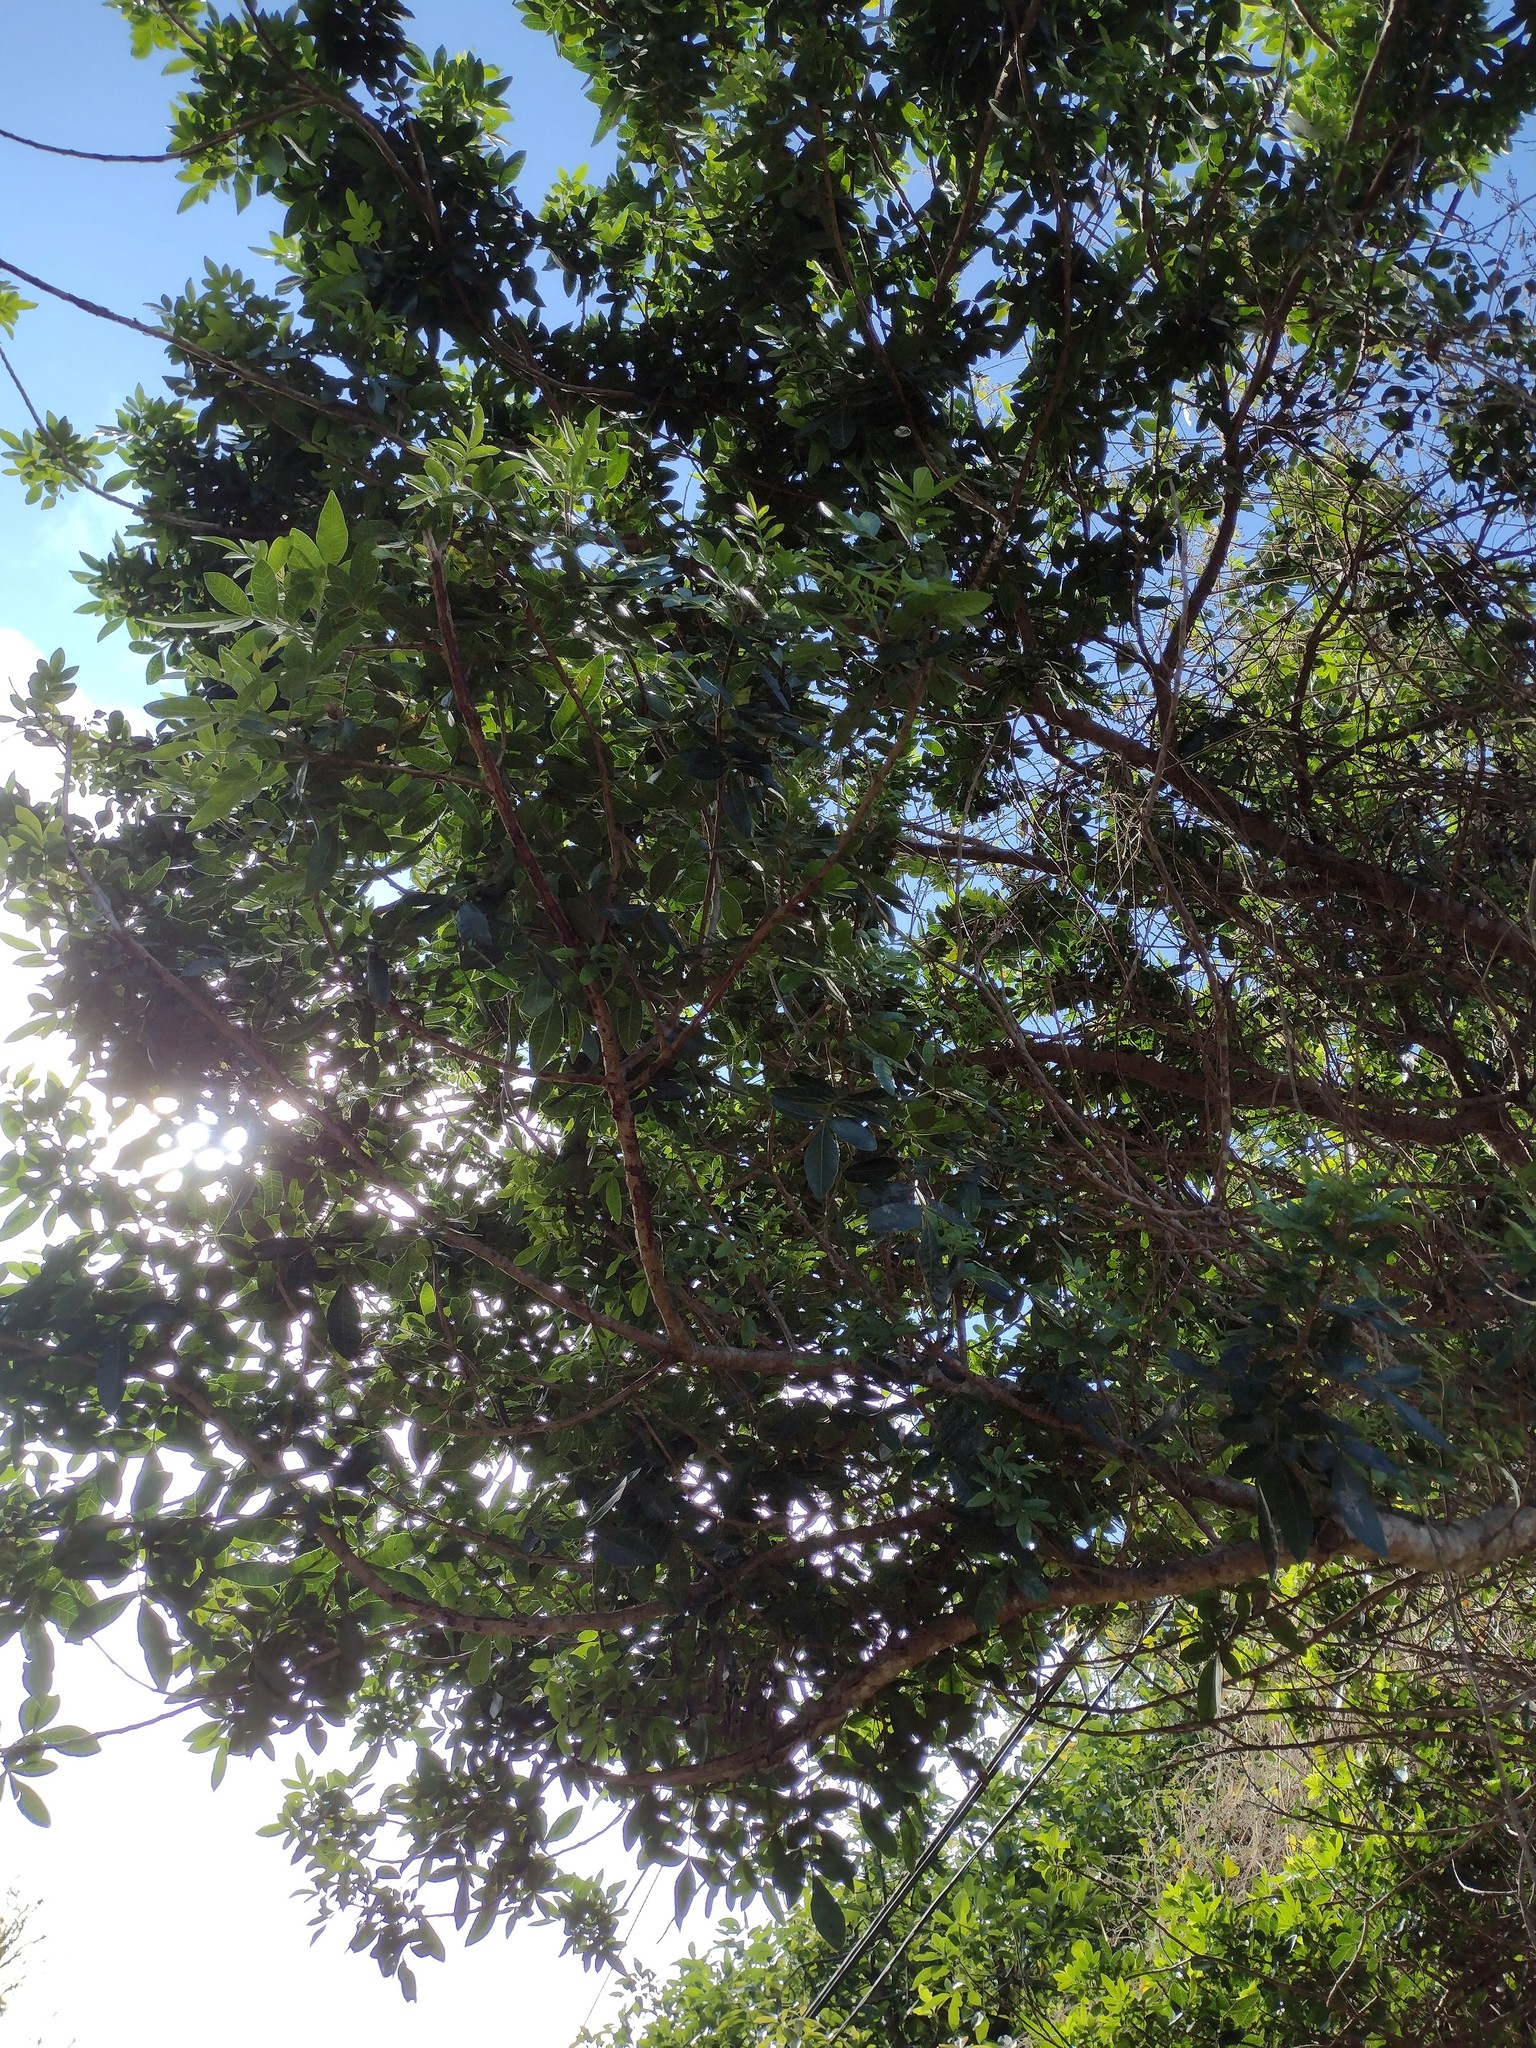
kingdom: Plantae
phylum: Tracheophyta
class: Magnoliopsida
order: Sapindales
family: Anacardiaceae
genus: Schinus
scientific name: Schinus terebinthifolia
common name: Brazilian peppertree
